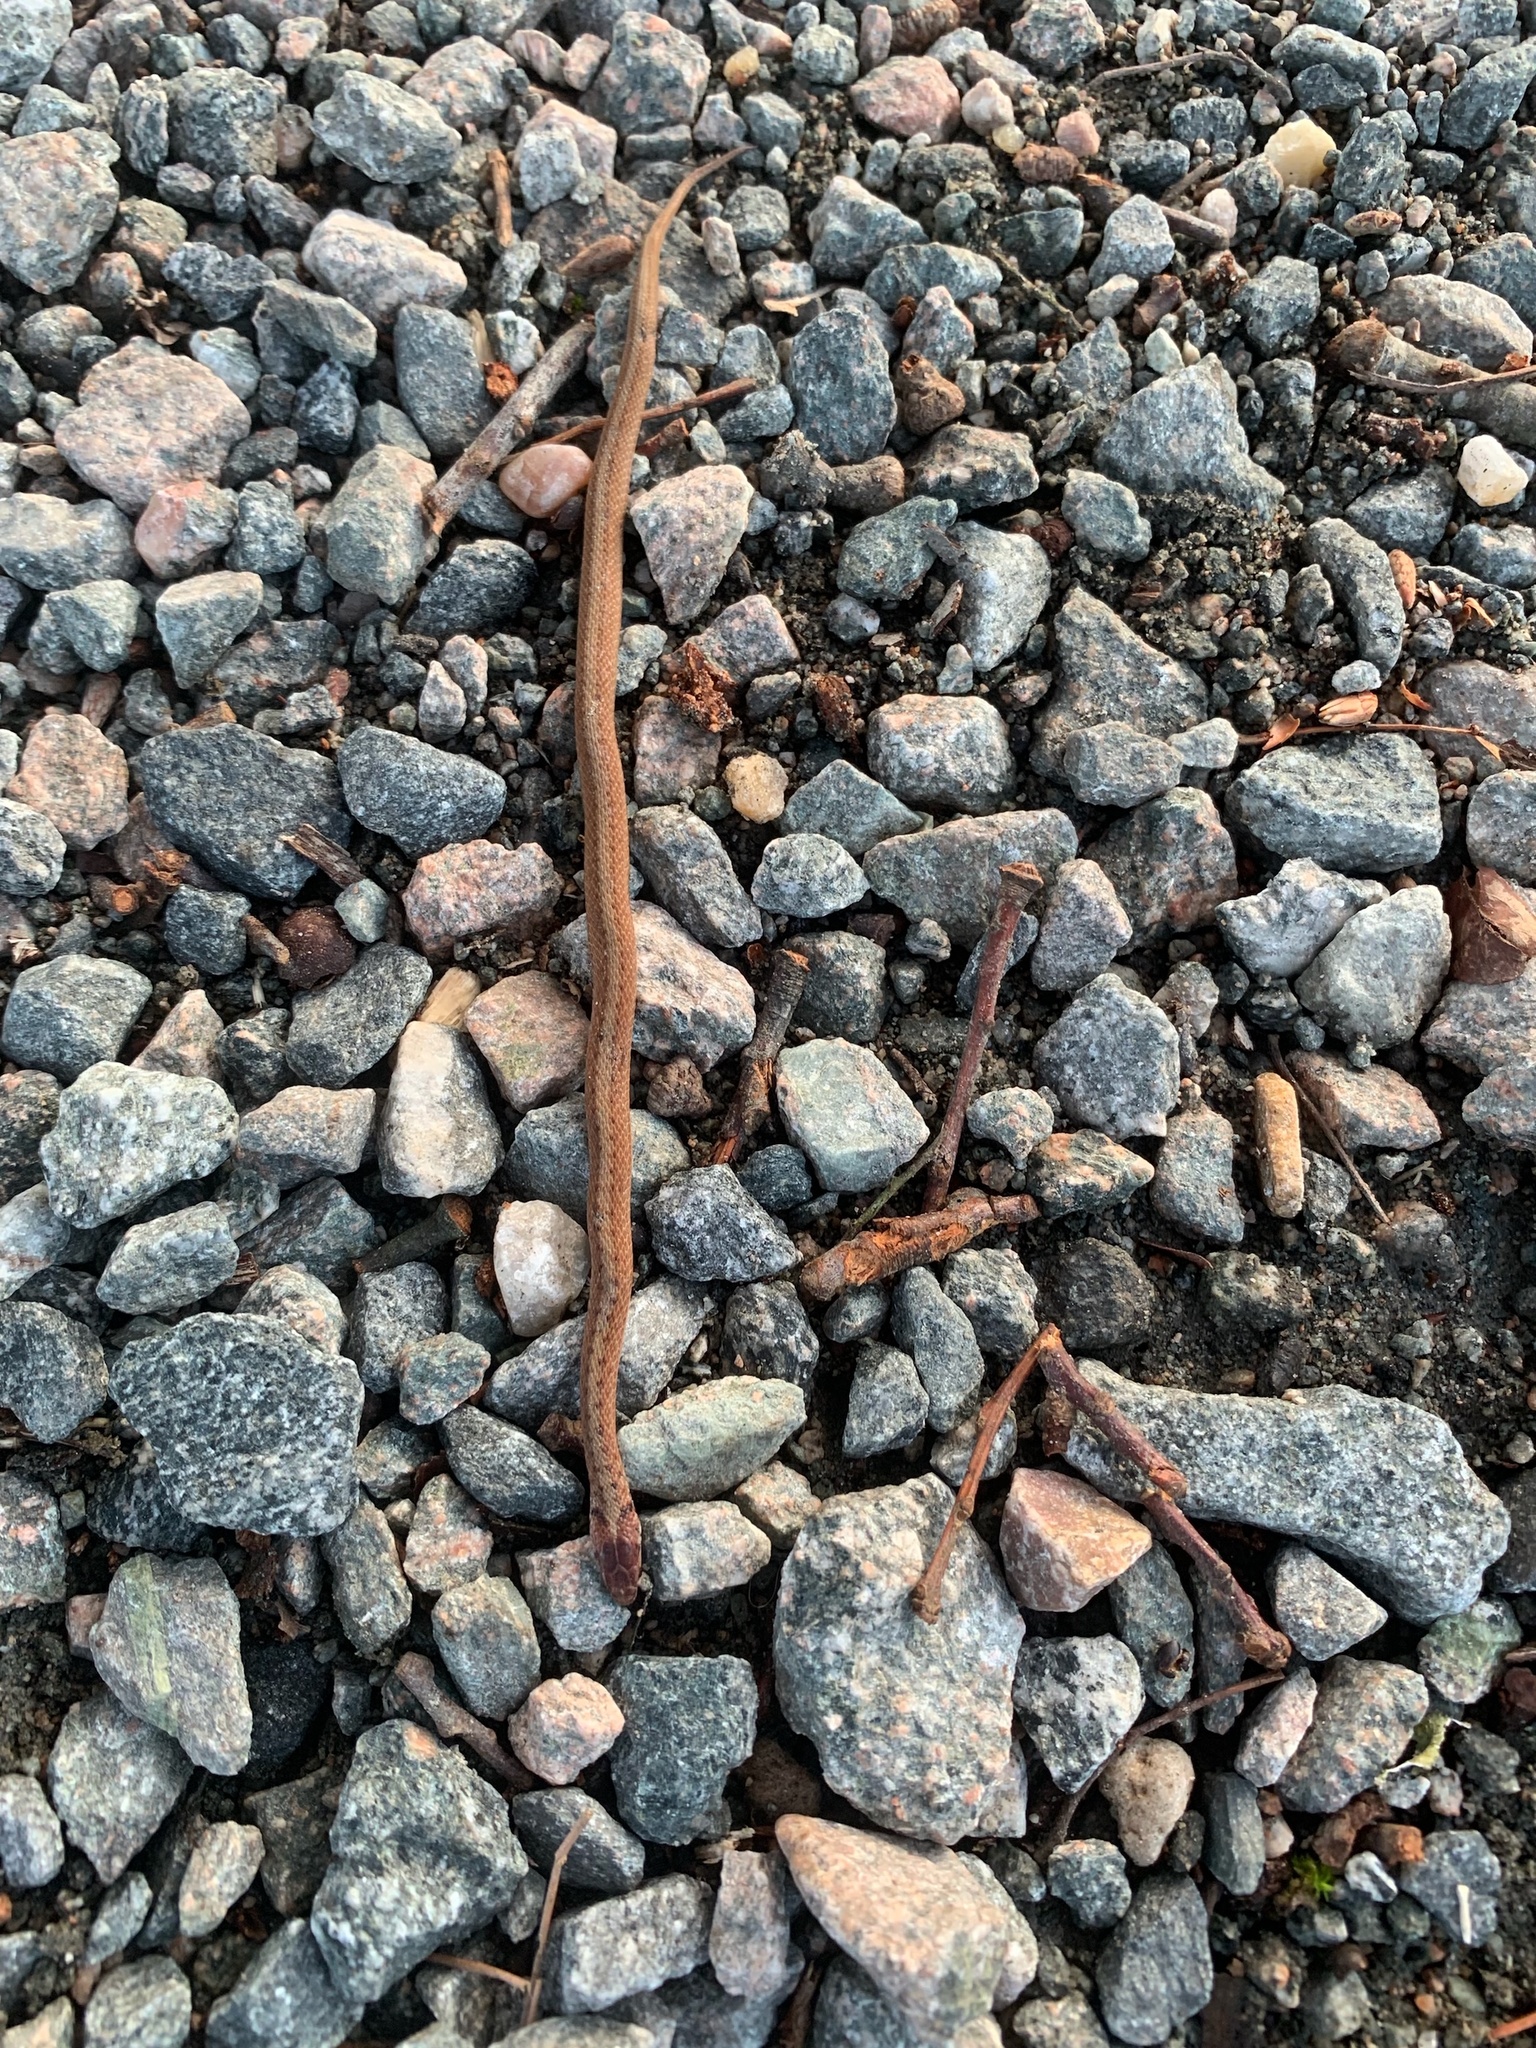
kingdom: Animalia
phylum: Chordata
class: Squamata
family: Colubridae
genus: Storeria
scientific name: Storeria dekayi
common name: (dekay’s) brown snake
